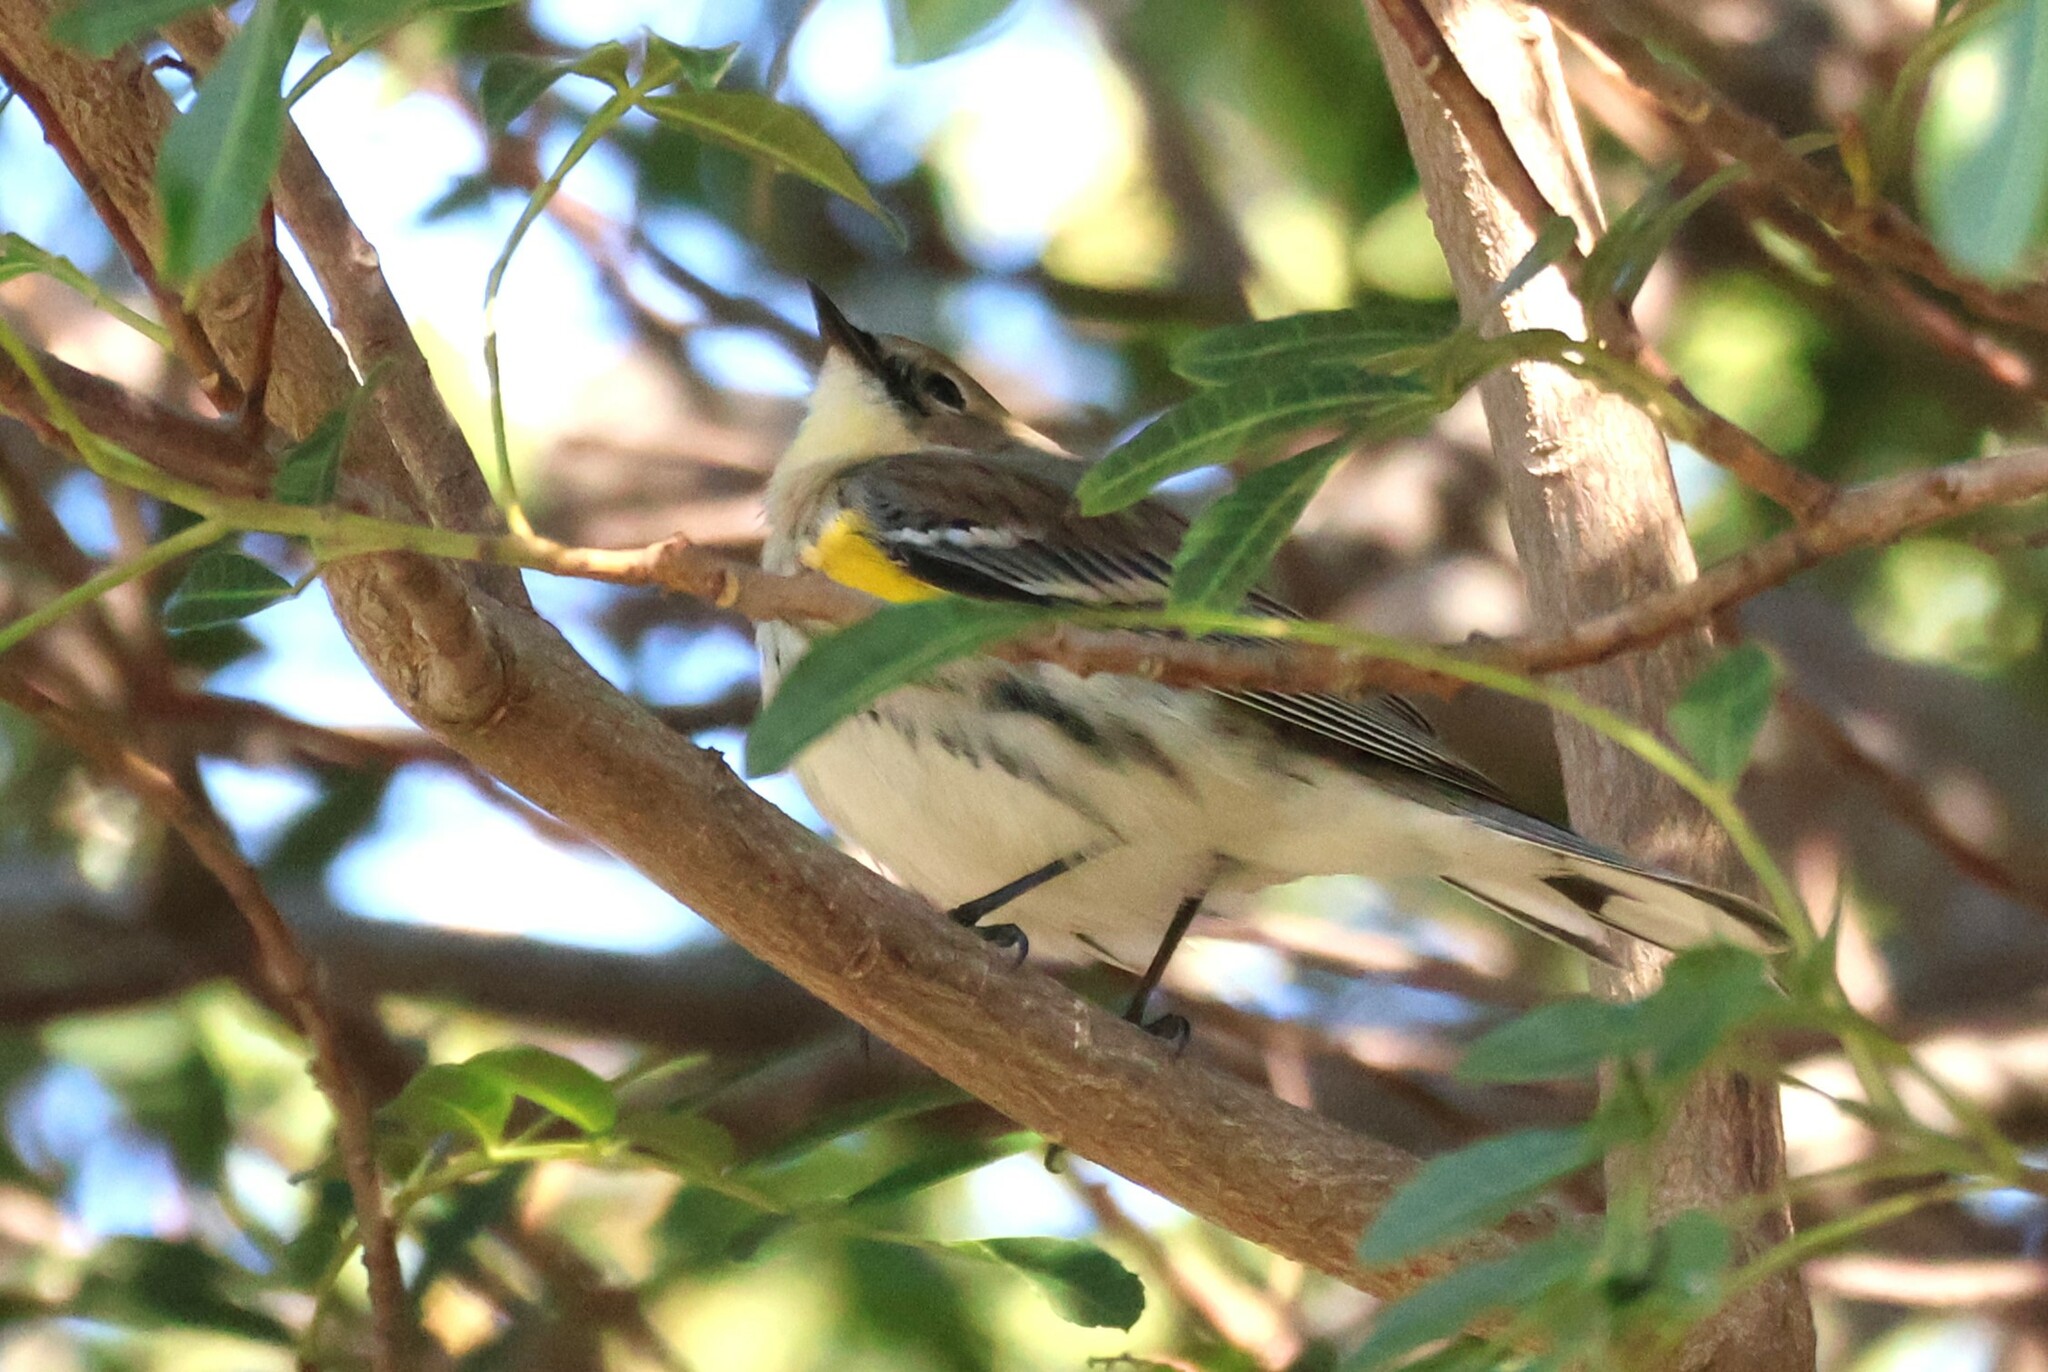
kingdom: Animalia
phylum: Chordata
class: Aves
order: Passeriformes
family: Parulidae
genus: Setophaga
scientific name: Setophaga coronata
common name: Myrtle warbler
